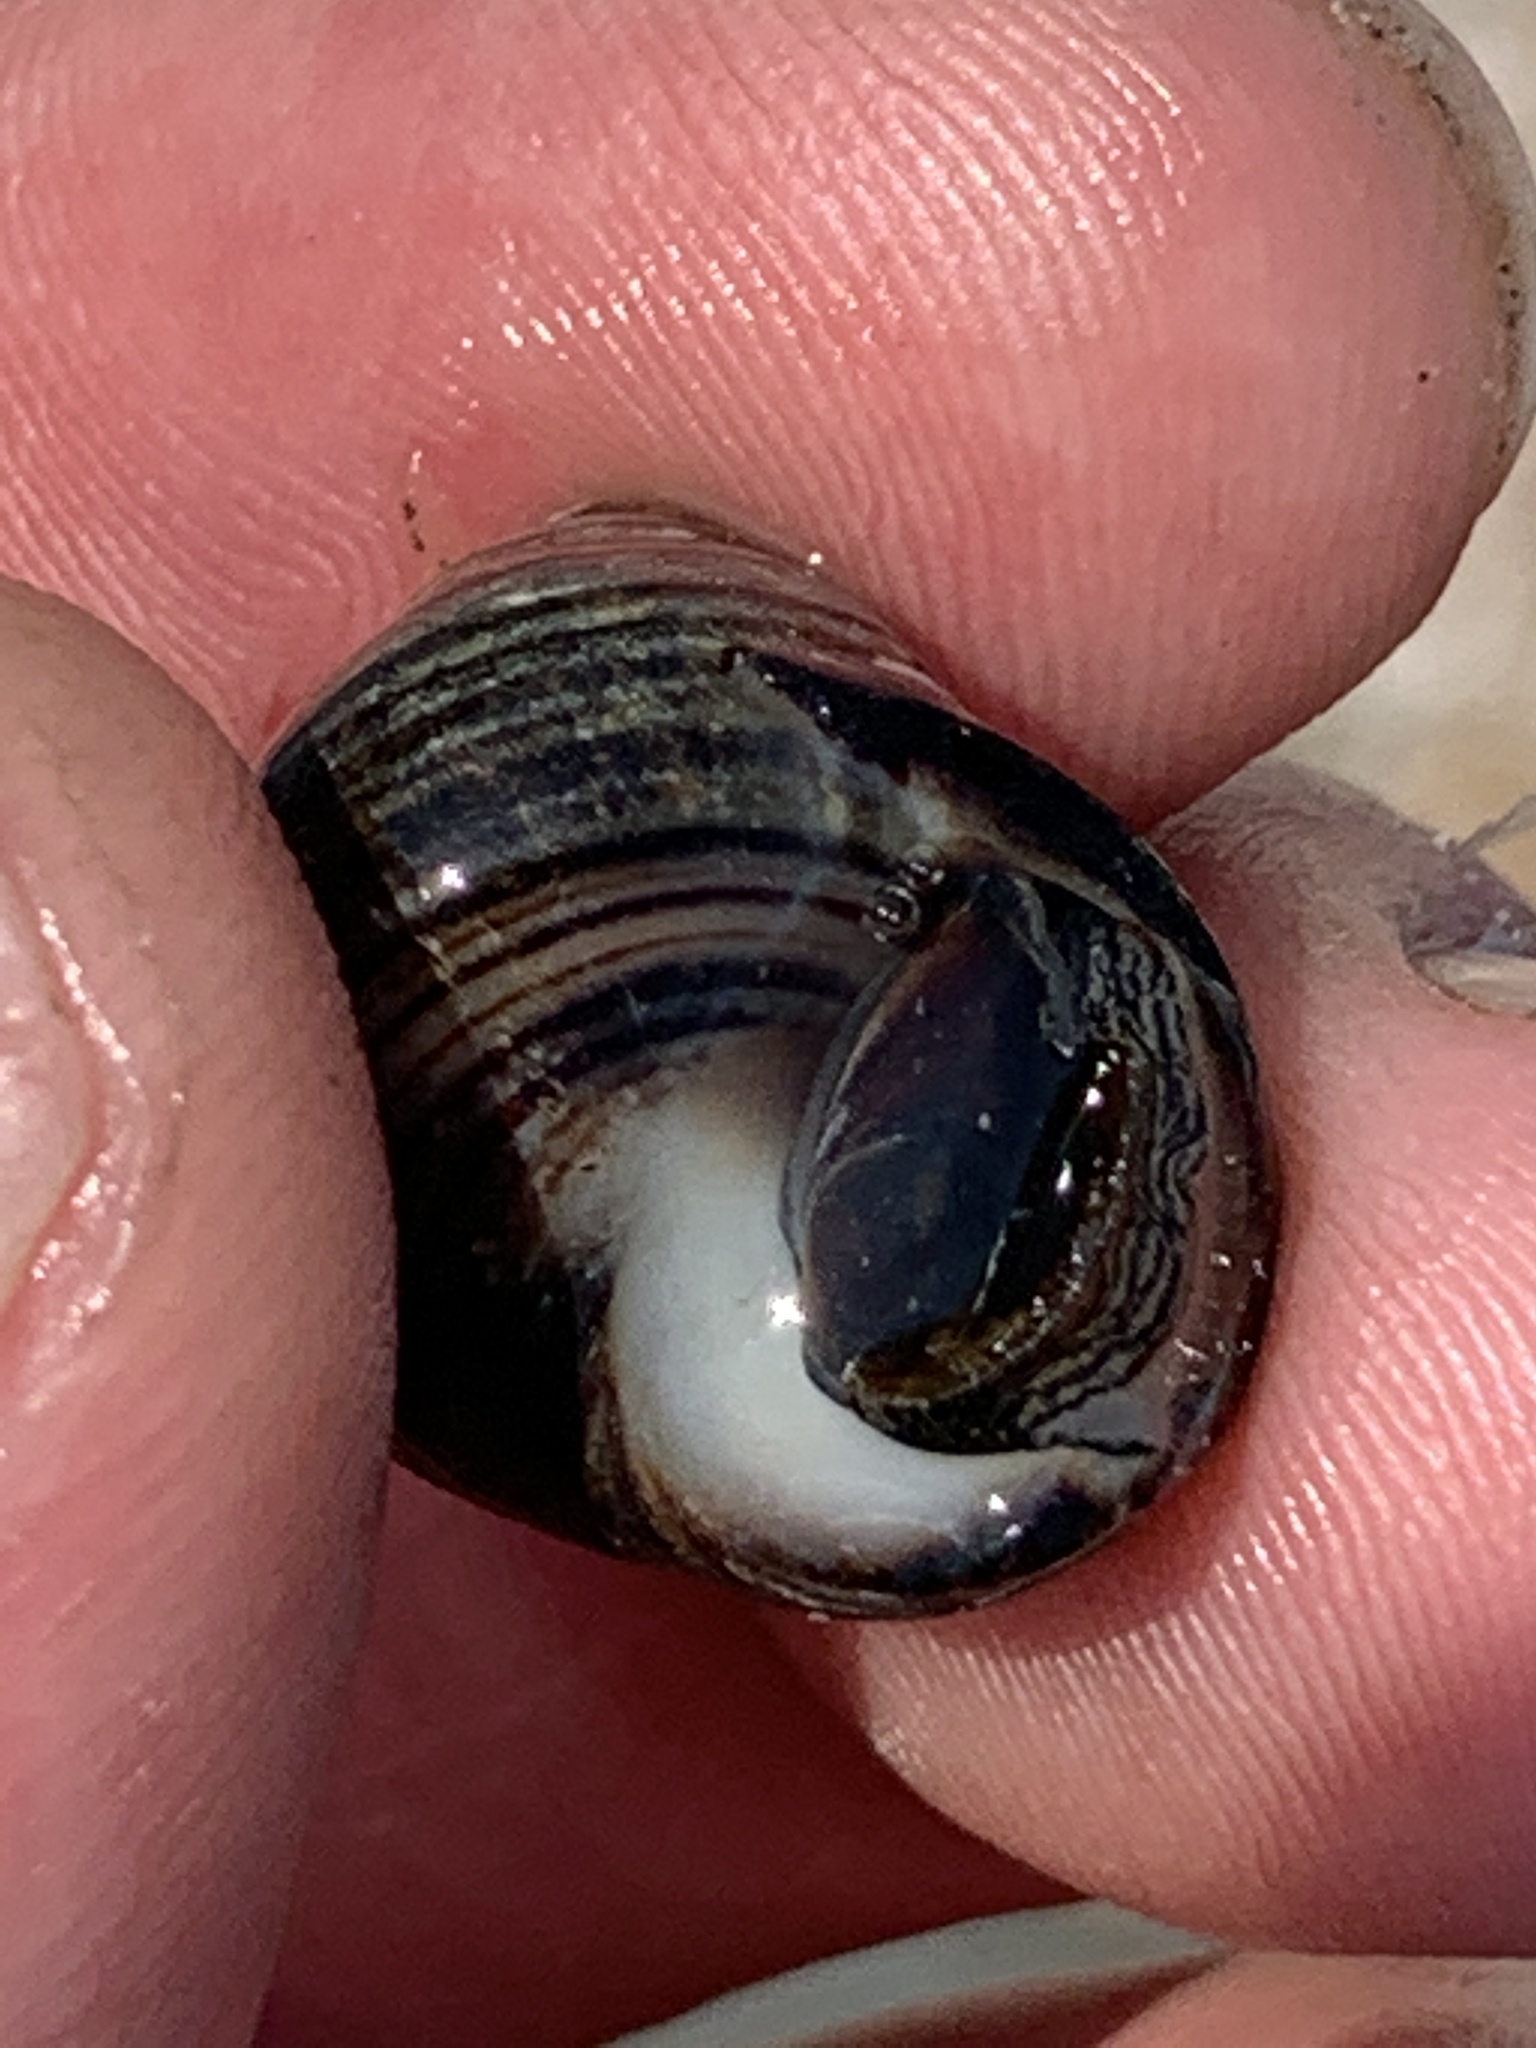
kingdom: Animalia
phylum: Mollusca
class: Gastropoda
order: Littorinimorpha
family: Littorinidae
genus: Littorina
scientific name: Littorina littorea
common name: Common periwinkle
